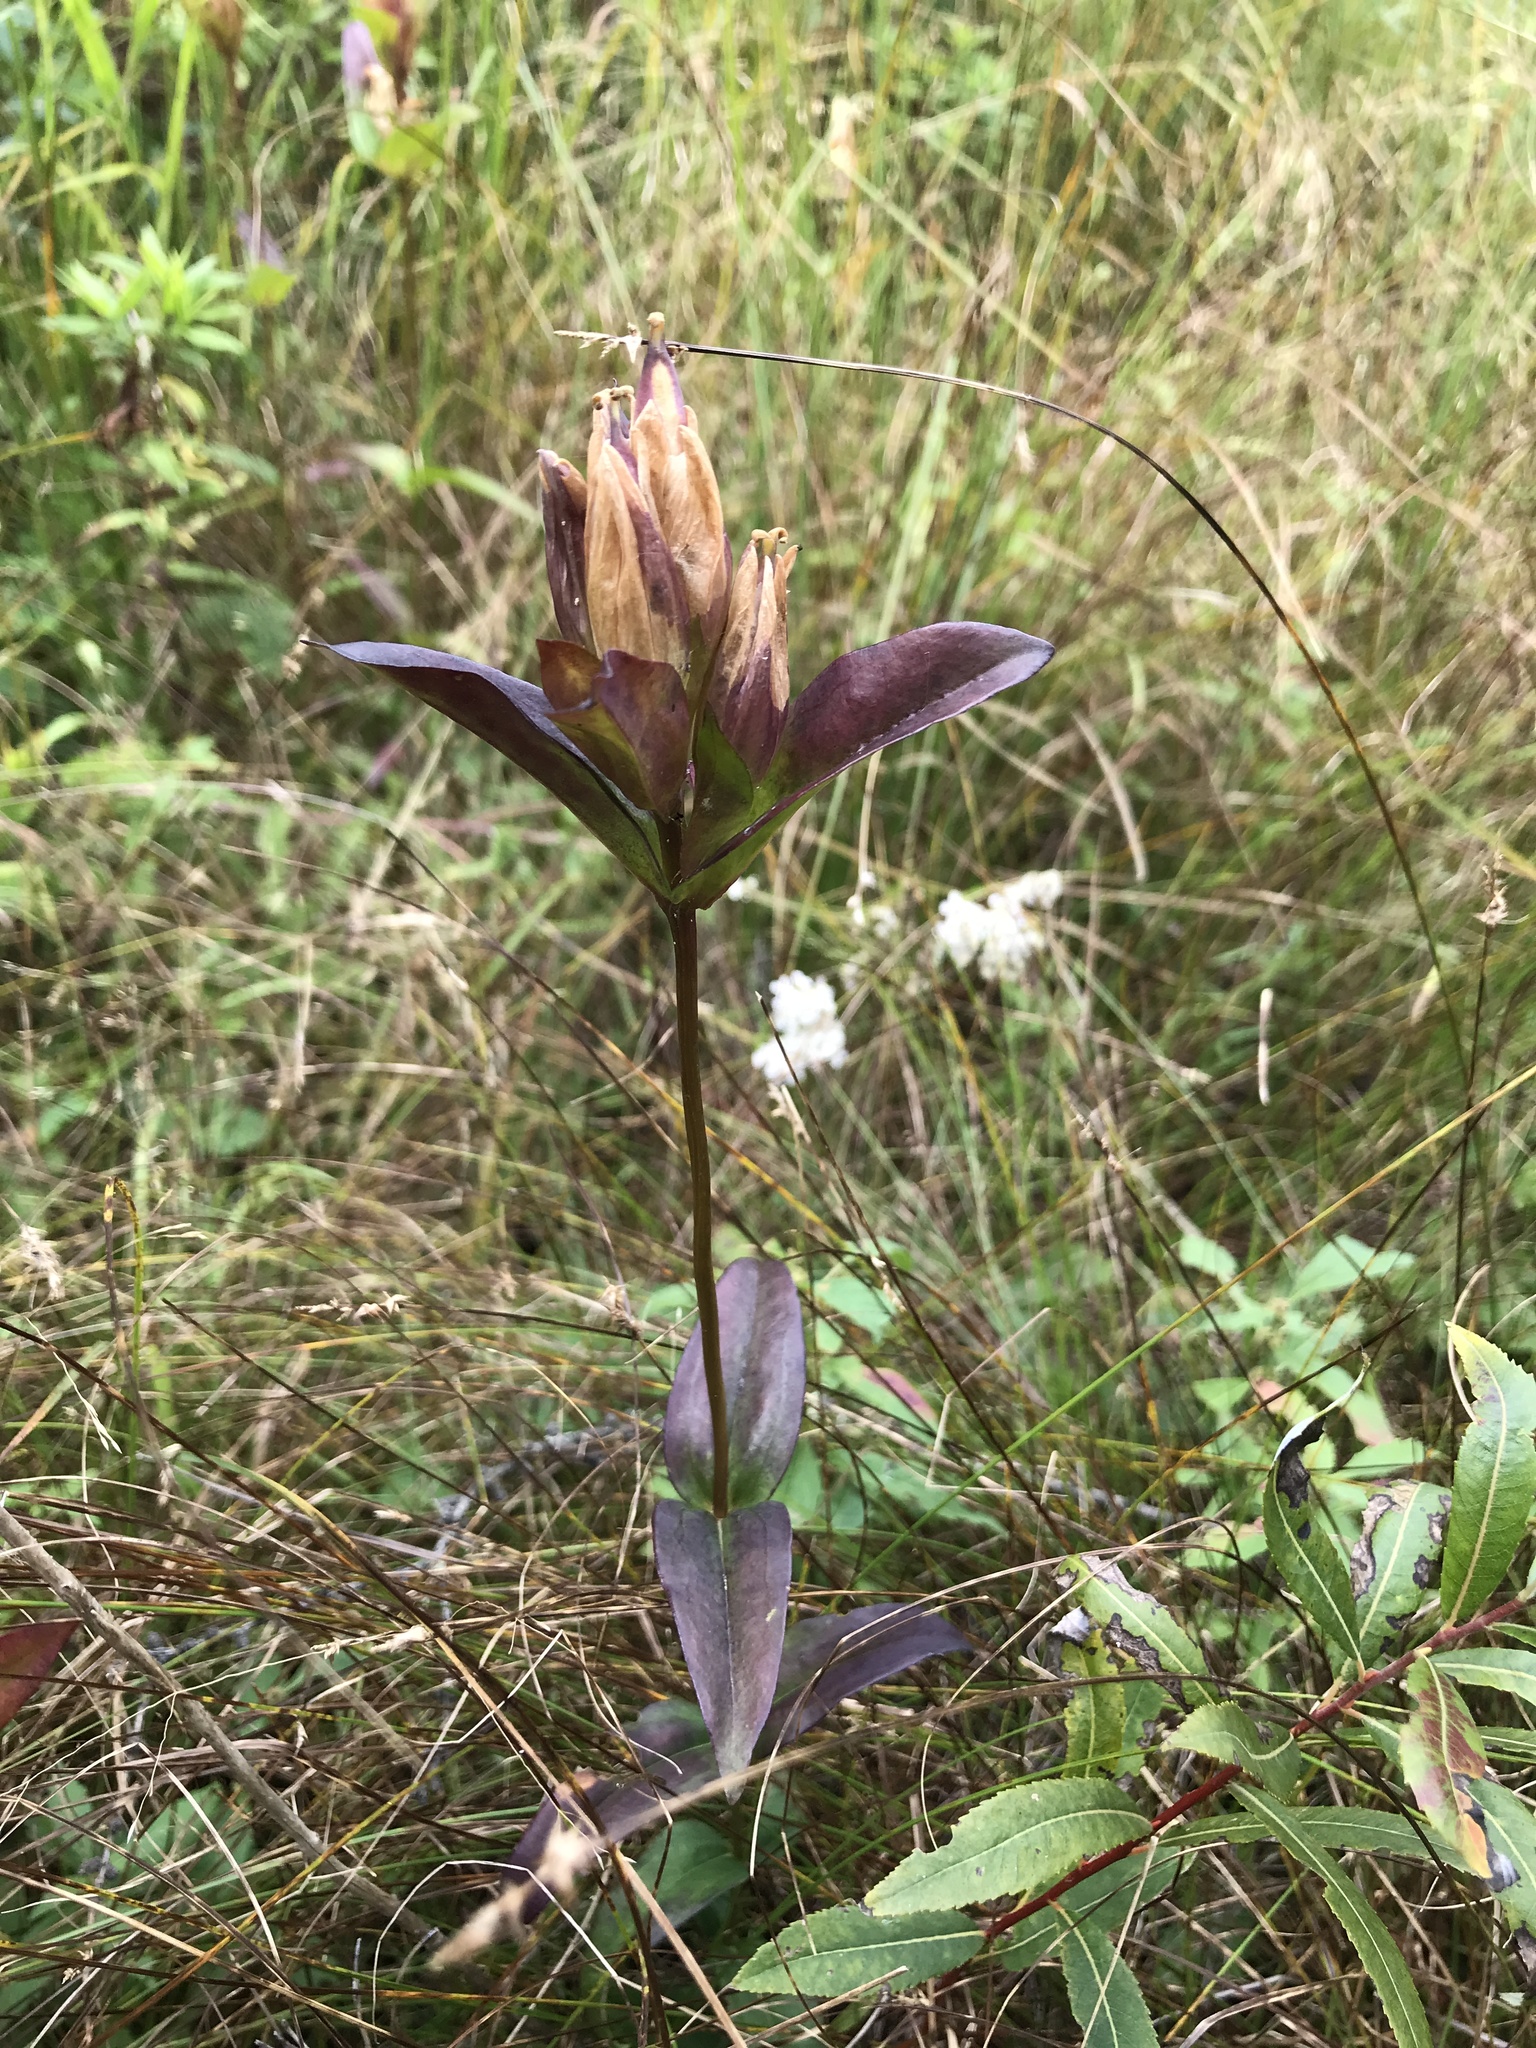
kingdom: Plantae
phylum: Tracheophyta
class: Magnoliopsida
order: Gentianales
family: Gentianaceae
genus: Gentiana
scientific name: Gentiana rubricaulis
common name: Purple-stemmed gentian
